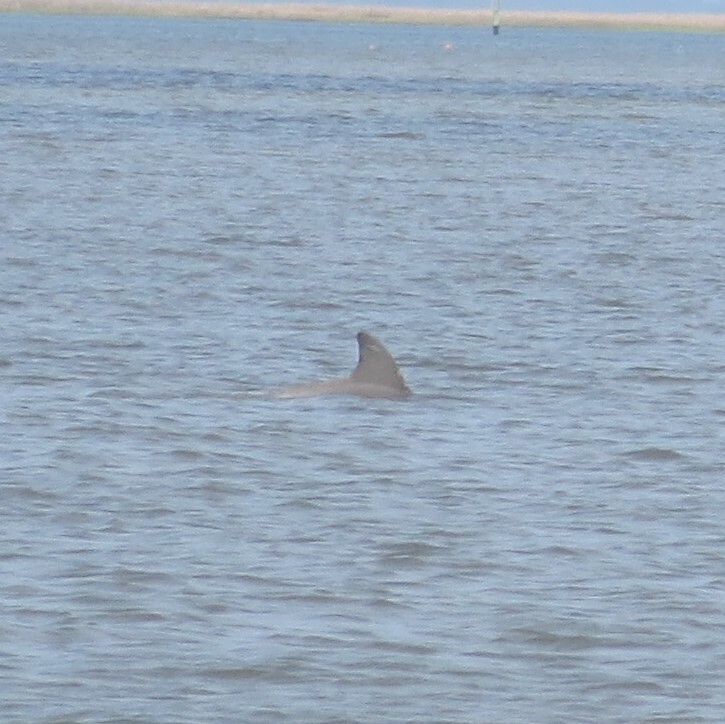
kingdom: Animalia
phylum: Chordata
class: Mammalia
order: Cetacea
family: Delphinidae
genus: Tursiops
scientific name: Tursiops truncatus
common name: Bottlenose dolphin
